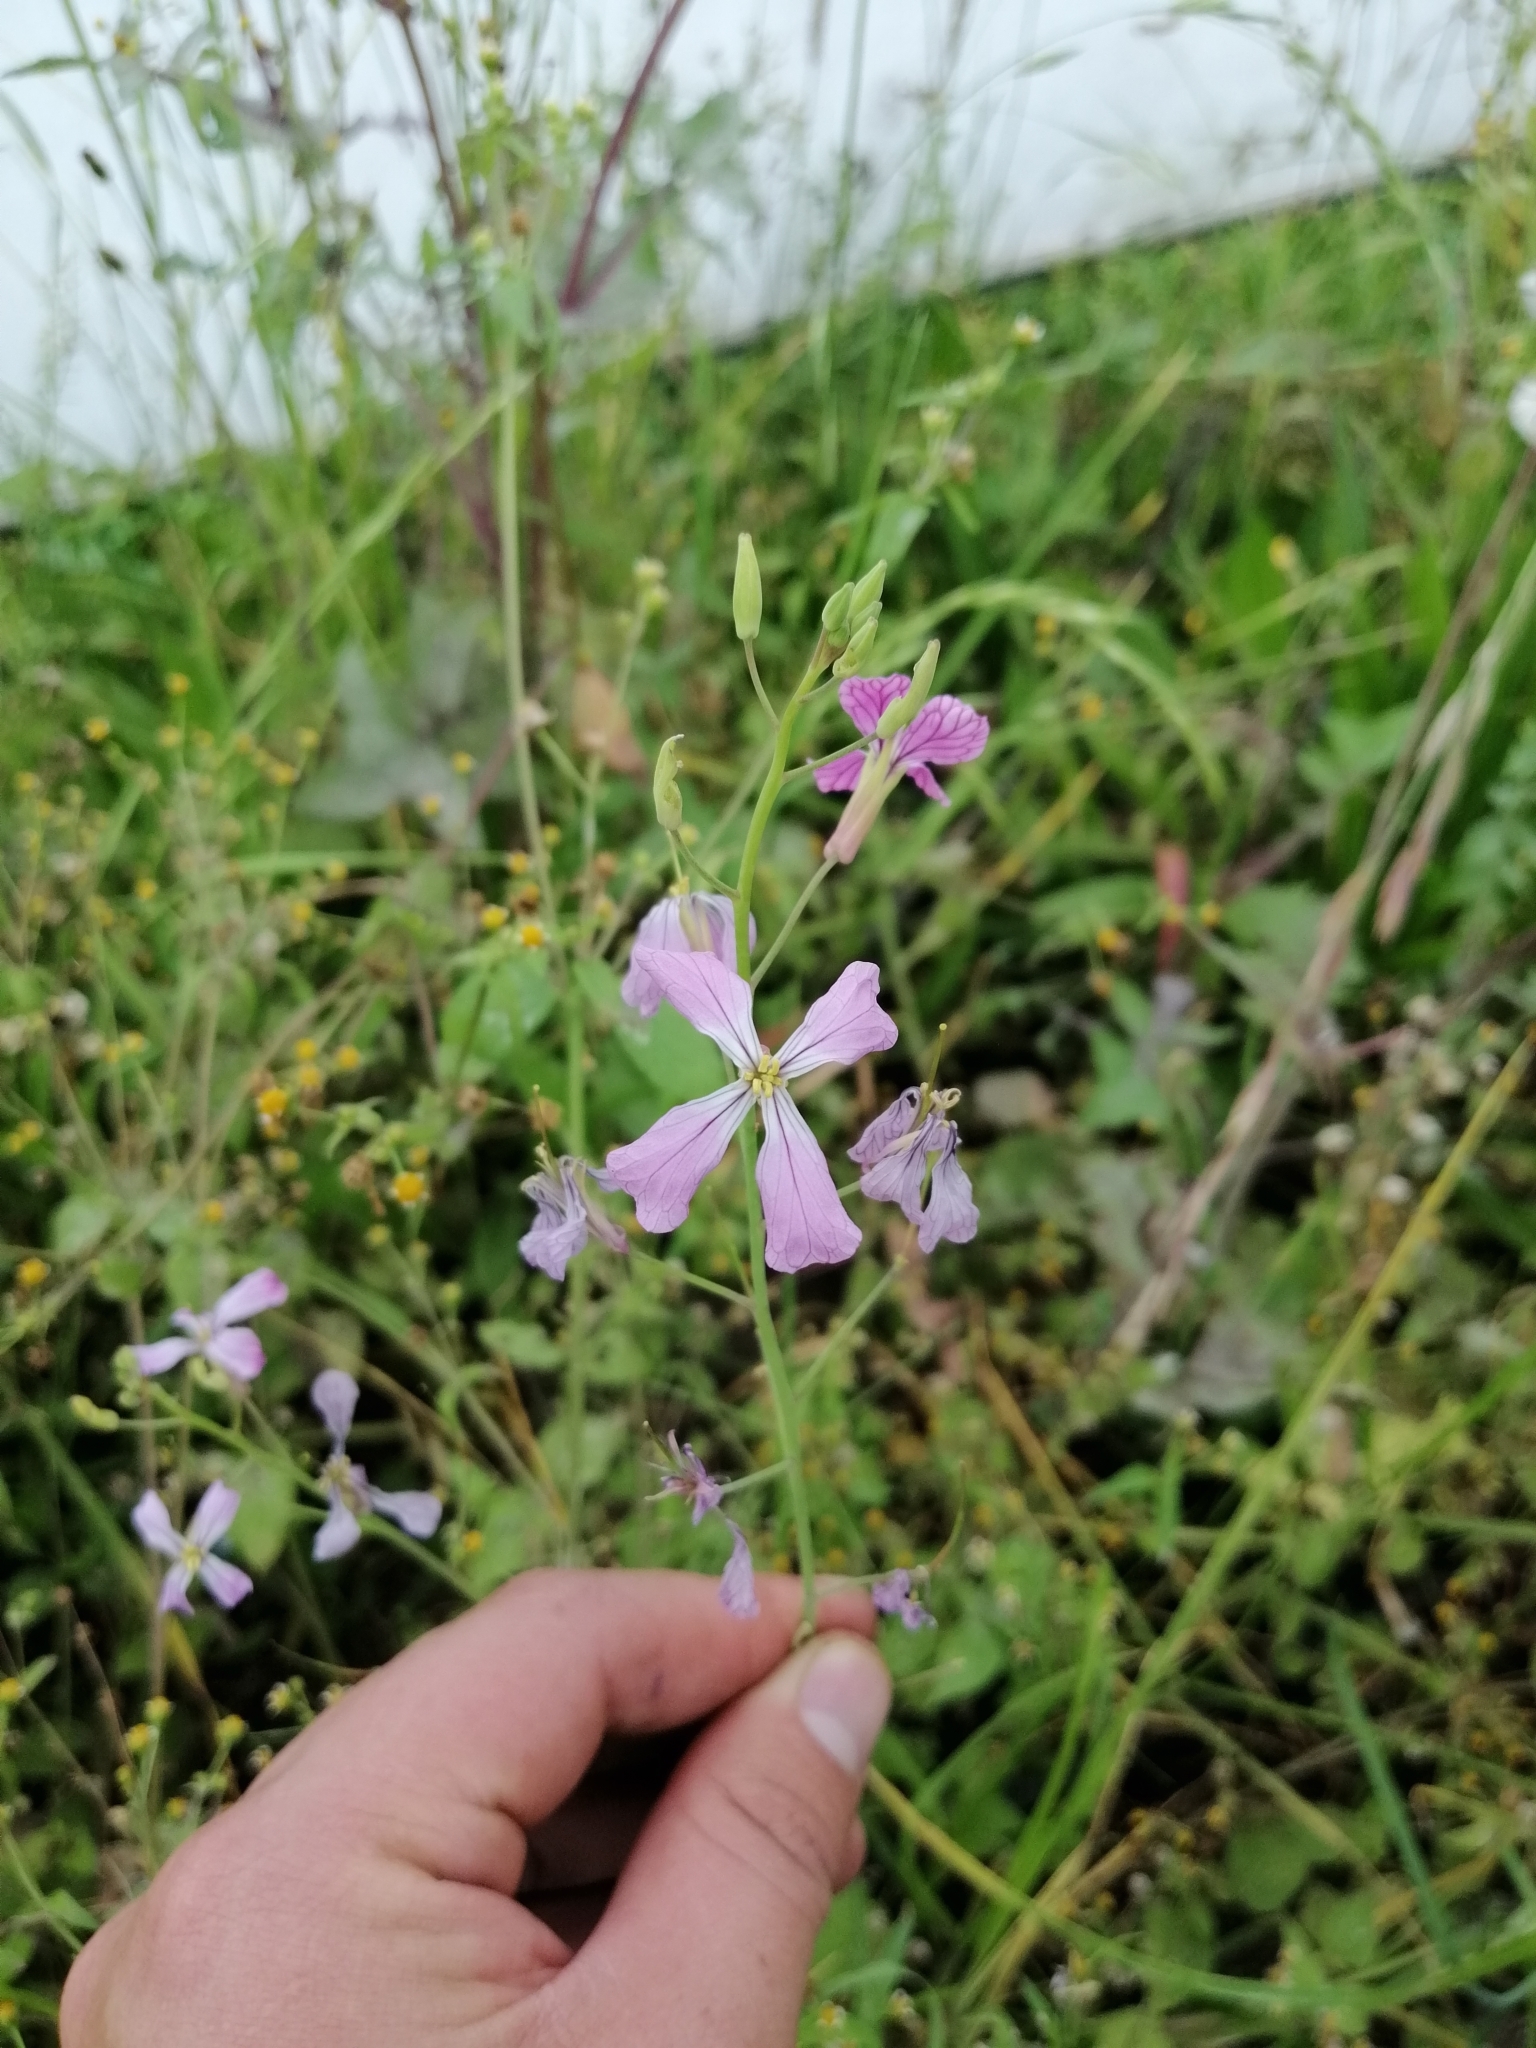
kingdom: Plantae
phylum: Tracheophyta
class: Magnoliopsida
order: Brassicales
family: Brassicaceae
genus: Raphanus
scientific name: Raphanus sativus
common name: Cultivated radish
